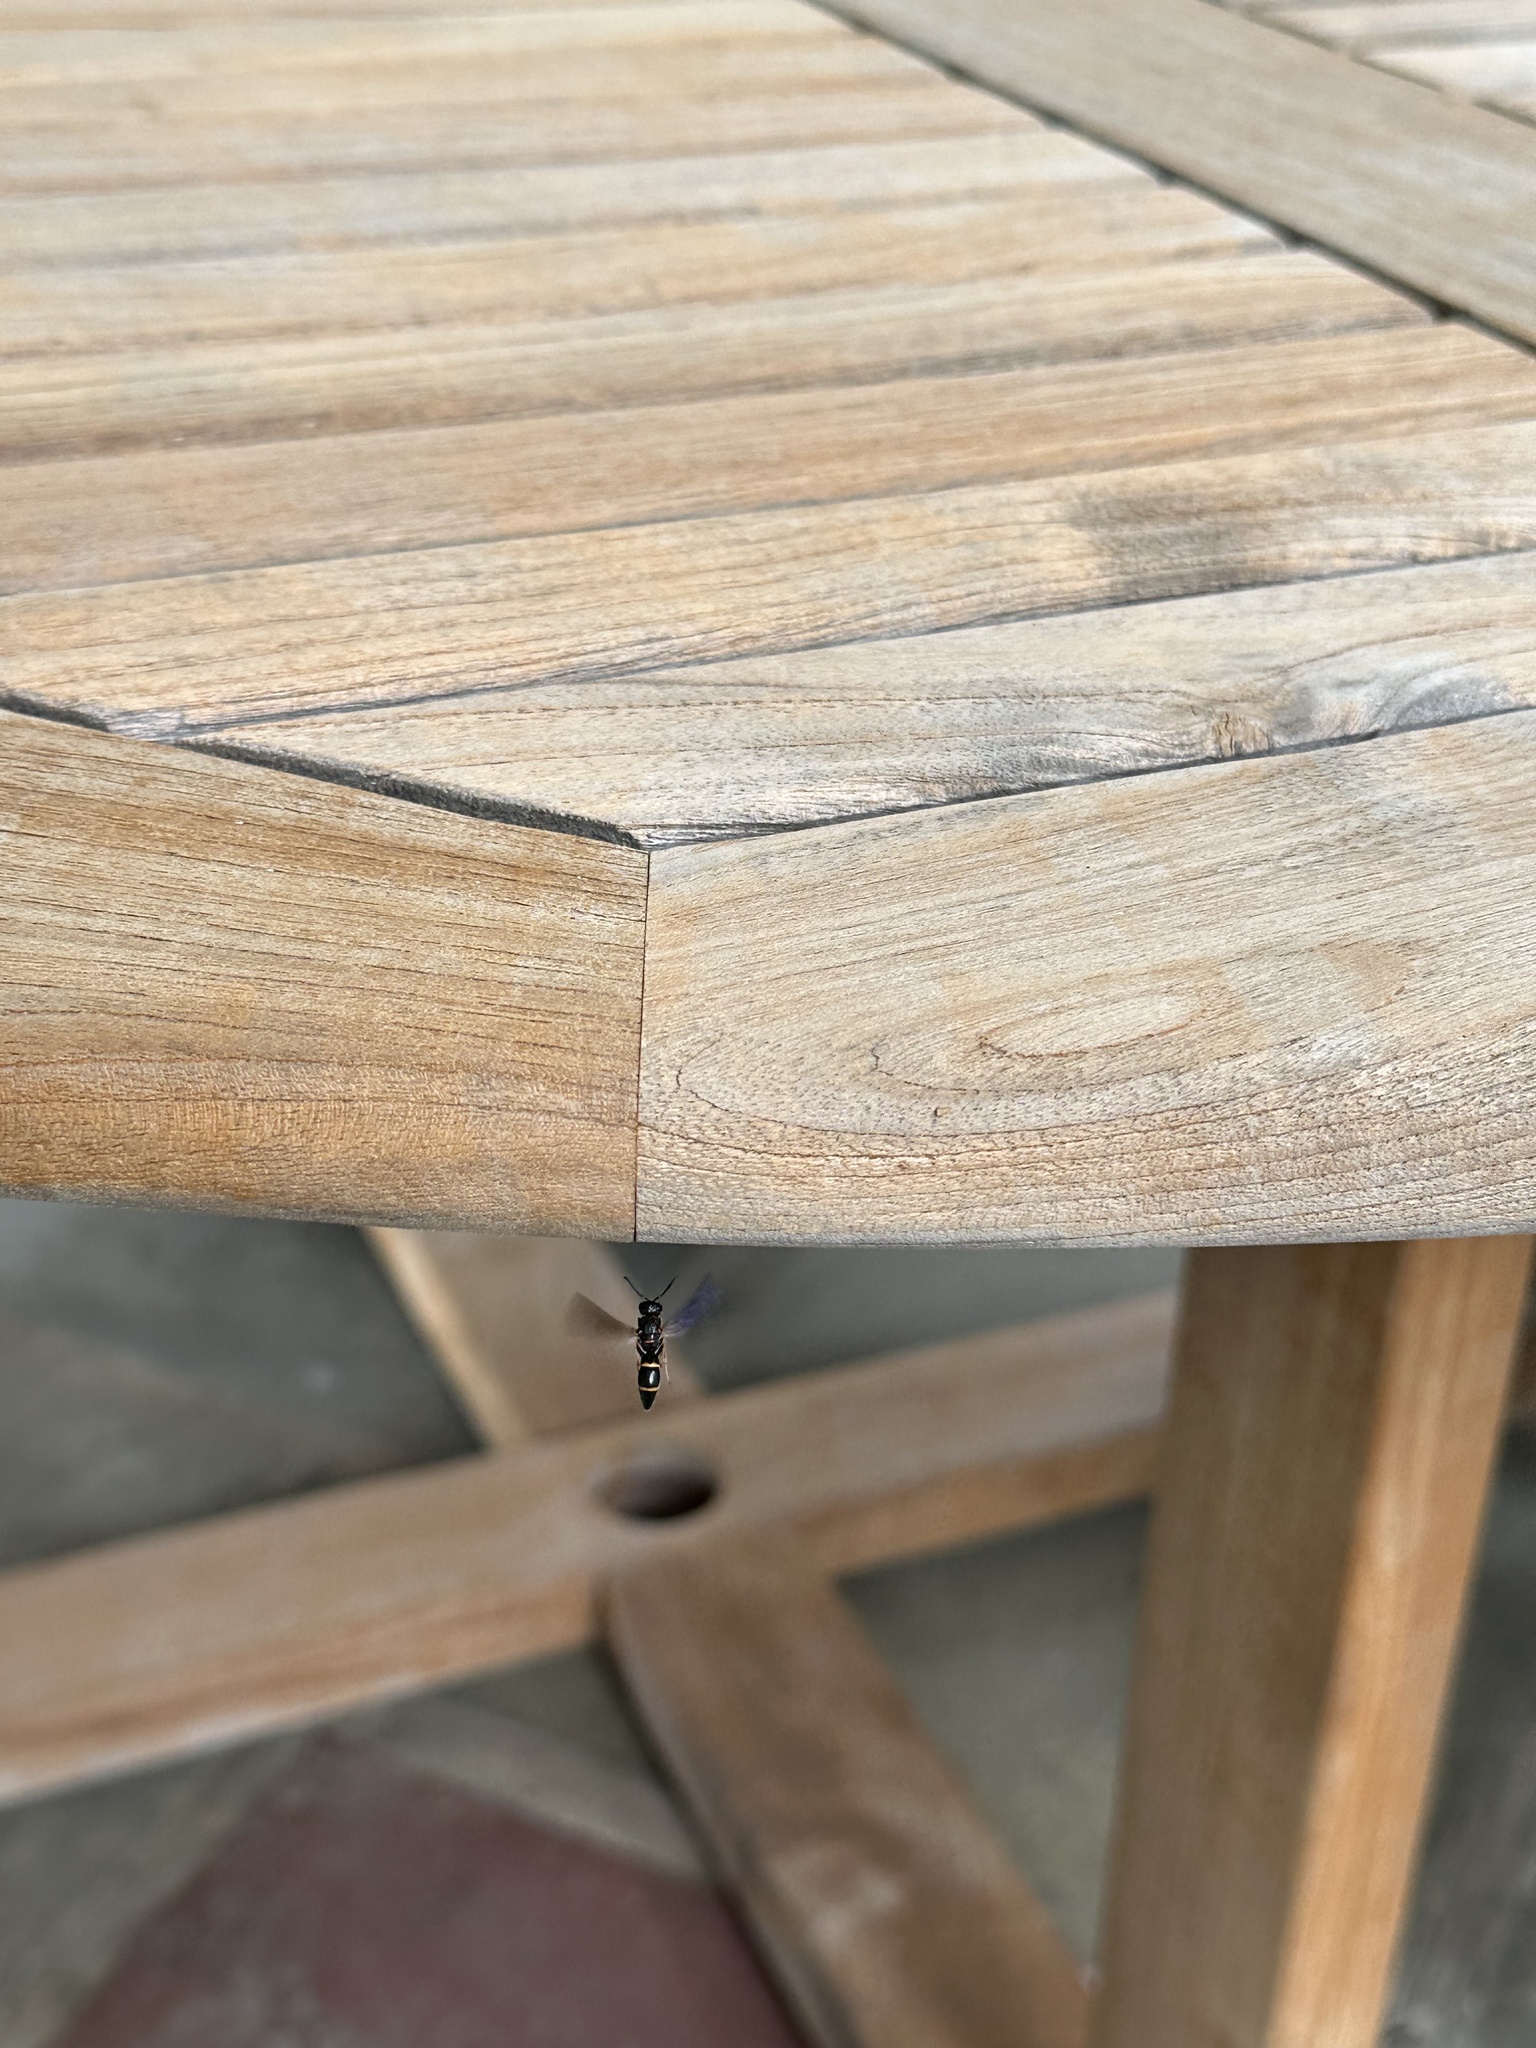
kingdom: Animalia
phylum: Arthropoda
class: Insecta
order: Hymenoptera
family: Eumenidae
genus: Parancistrocerus
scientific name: Parancistrocerus
